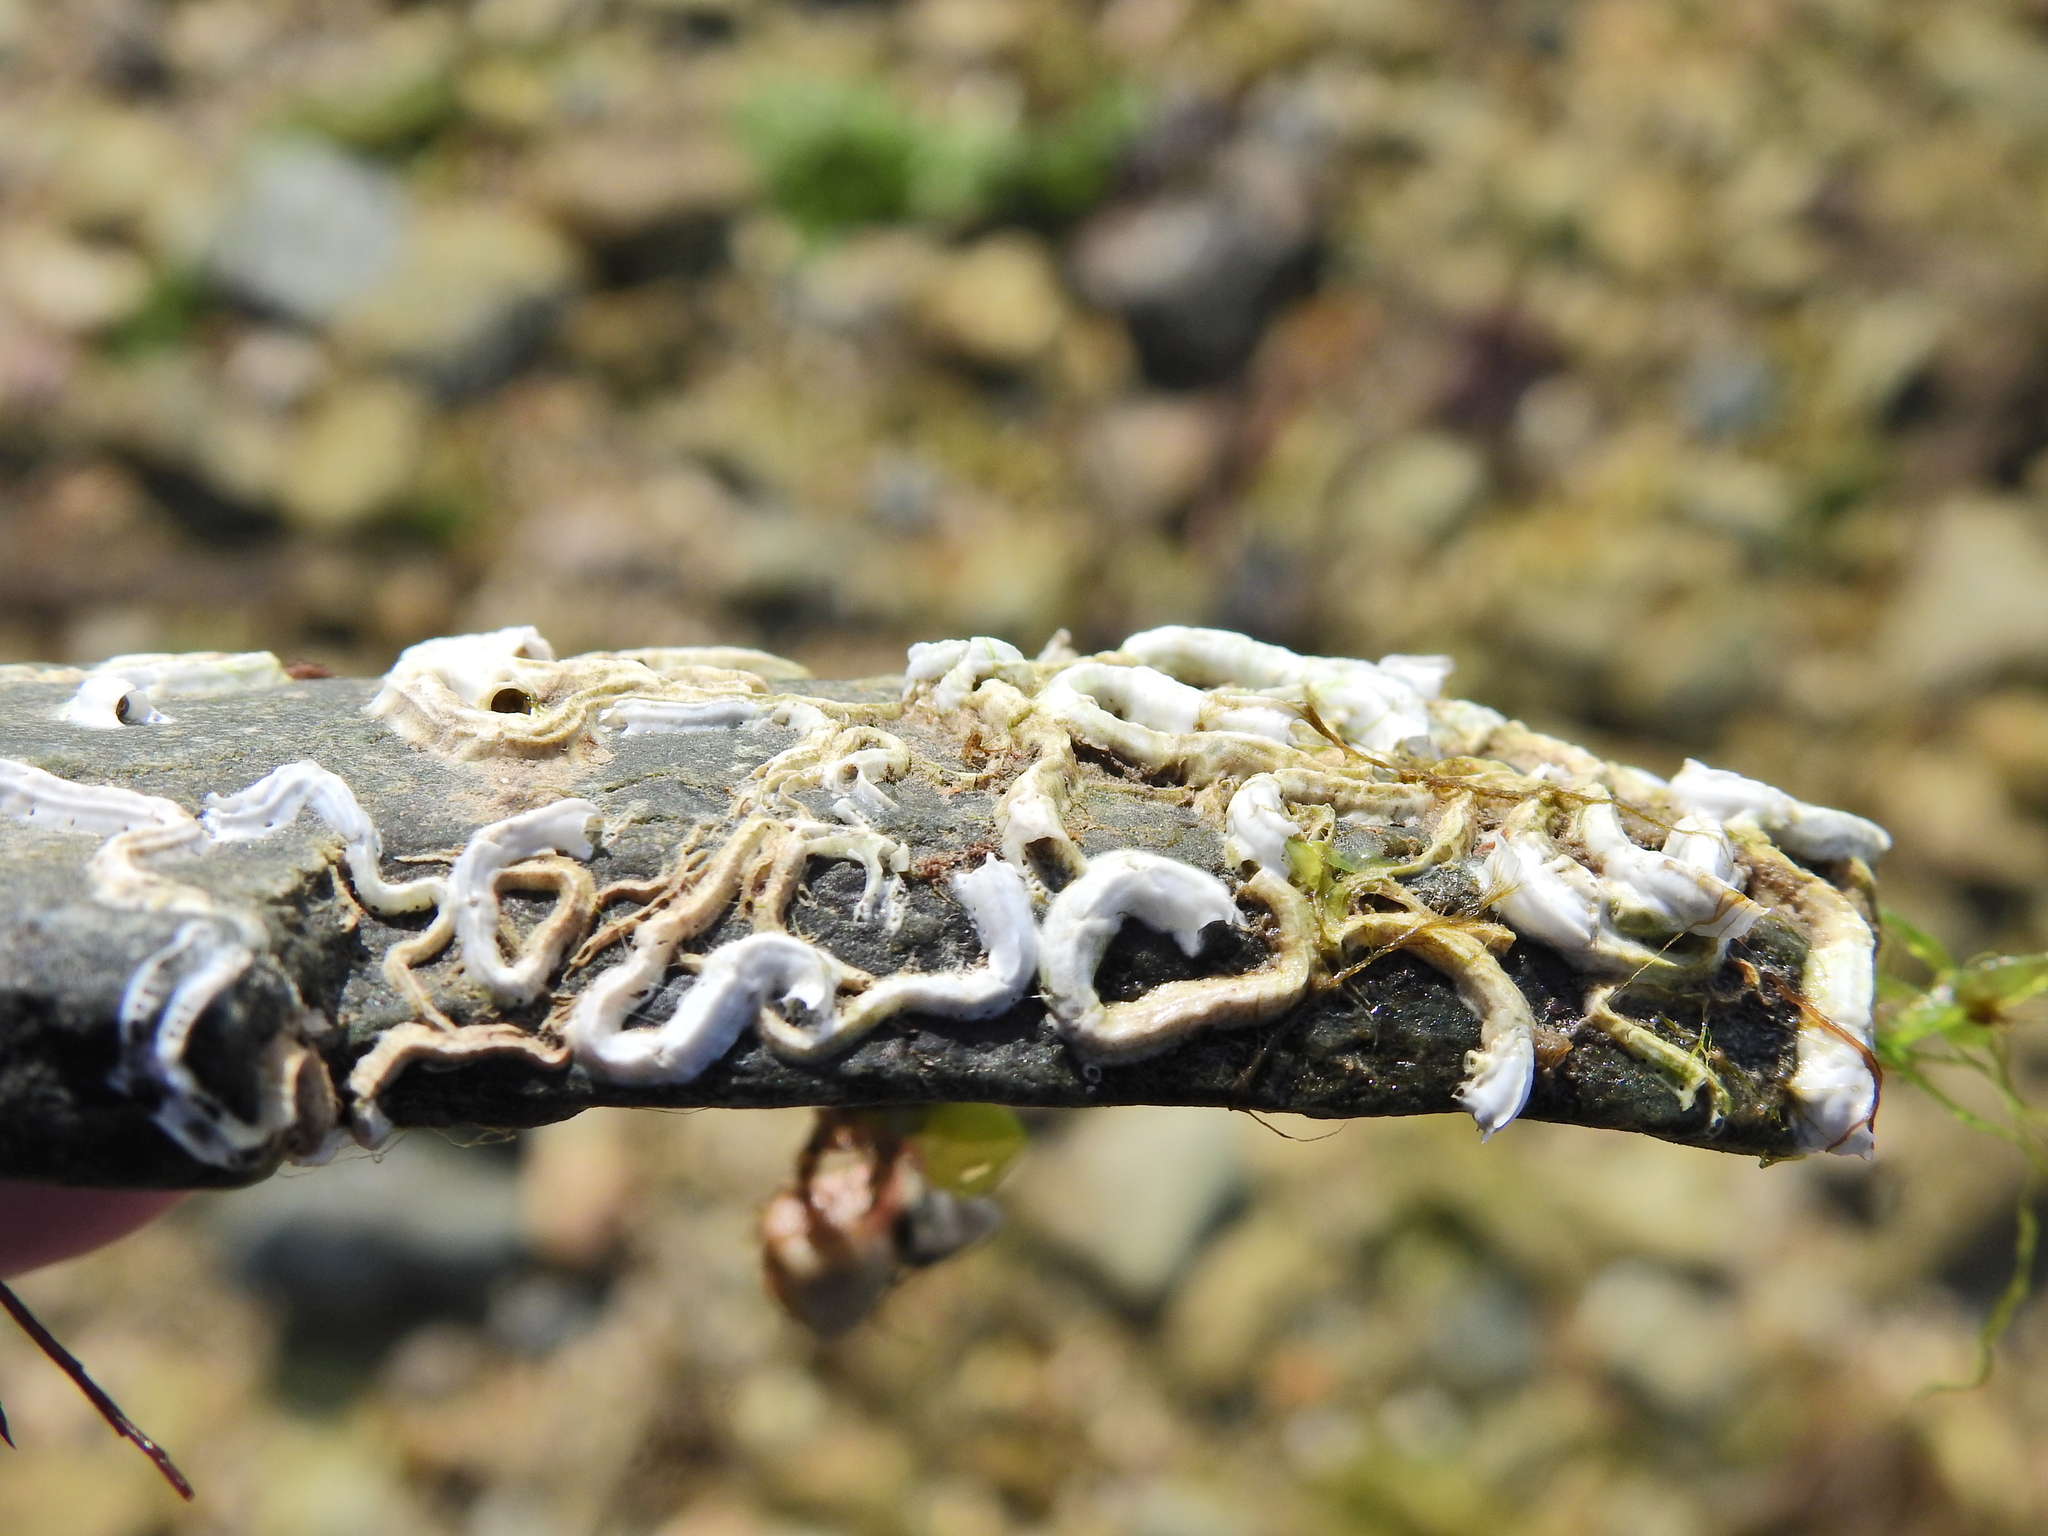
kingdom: Animalia
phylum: Annelida
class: Polychaeta
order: Sabellida
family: Serpulidae
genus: Spirobranchus
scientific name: Spirobranchus lamarcki
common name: Keelworm
